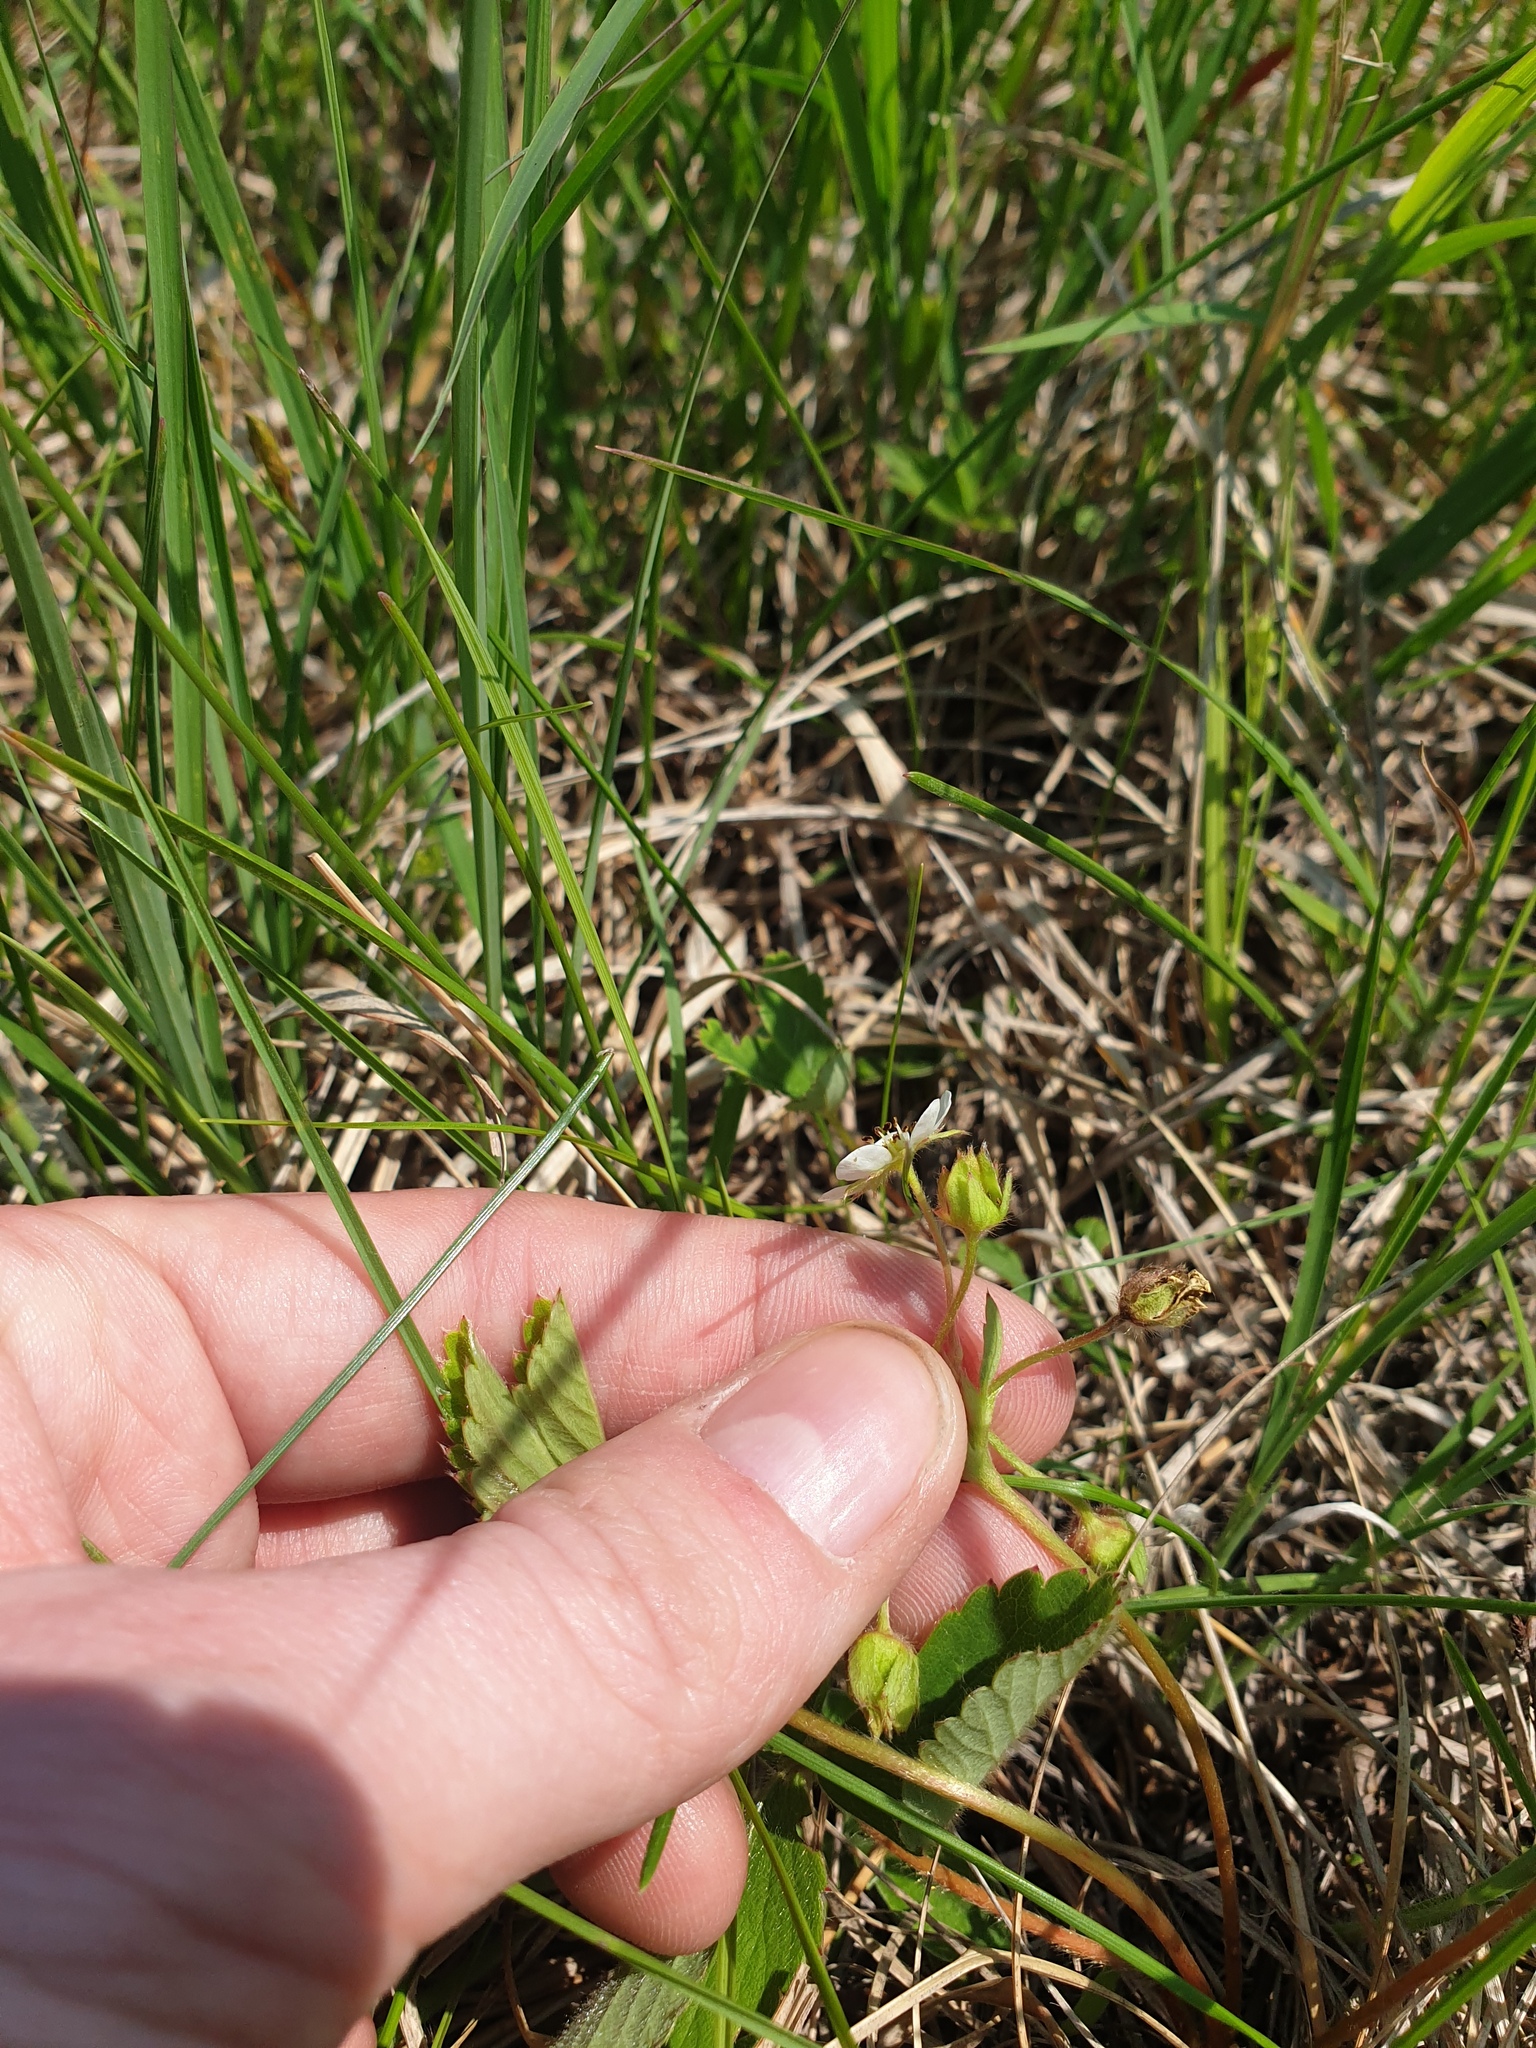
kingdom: Plantae
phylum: Tracheophyta
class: Magnoliopsida
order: Rosales
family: Rosaceae
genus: Fragaria
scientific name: Fragaria virginiana
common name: Thickleaved wild strawberry
